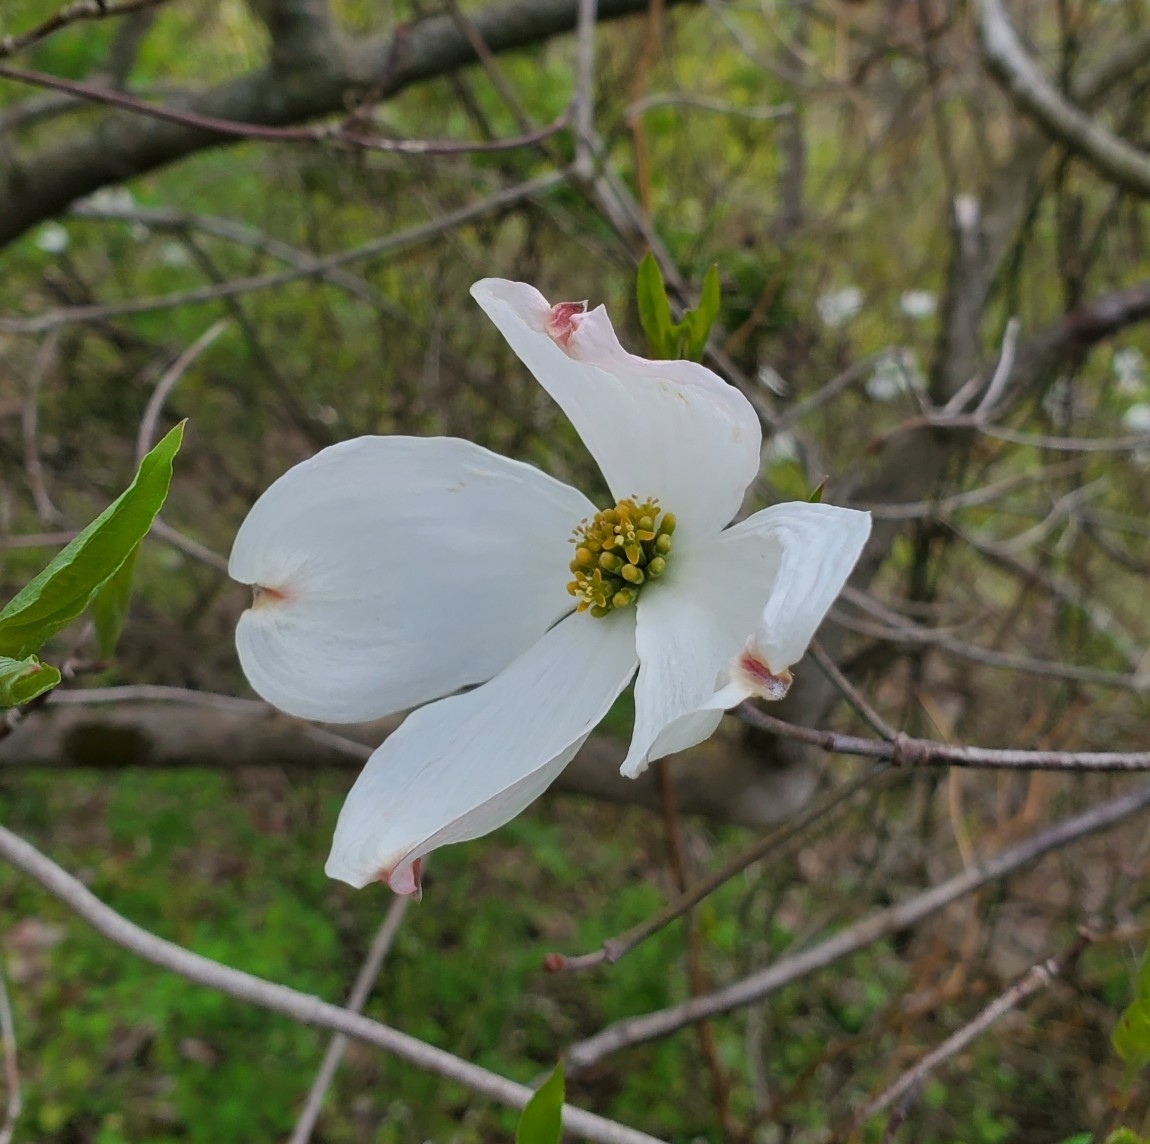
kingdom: Plantae
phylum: Tracheophyta
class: Magnoliopsida
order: Cornales
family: Cornaceae
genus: Cornus
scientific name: Cornus florida
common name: Flowering dogwood
